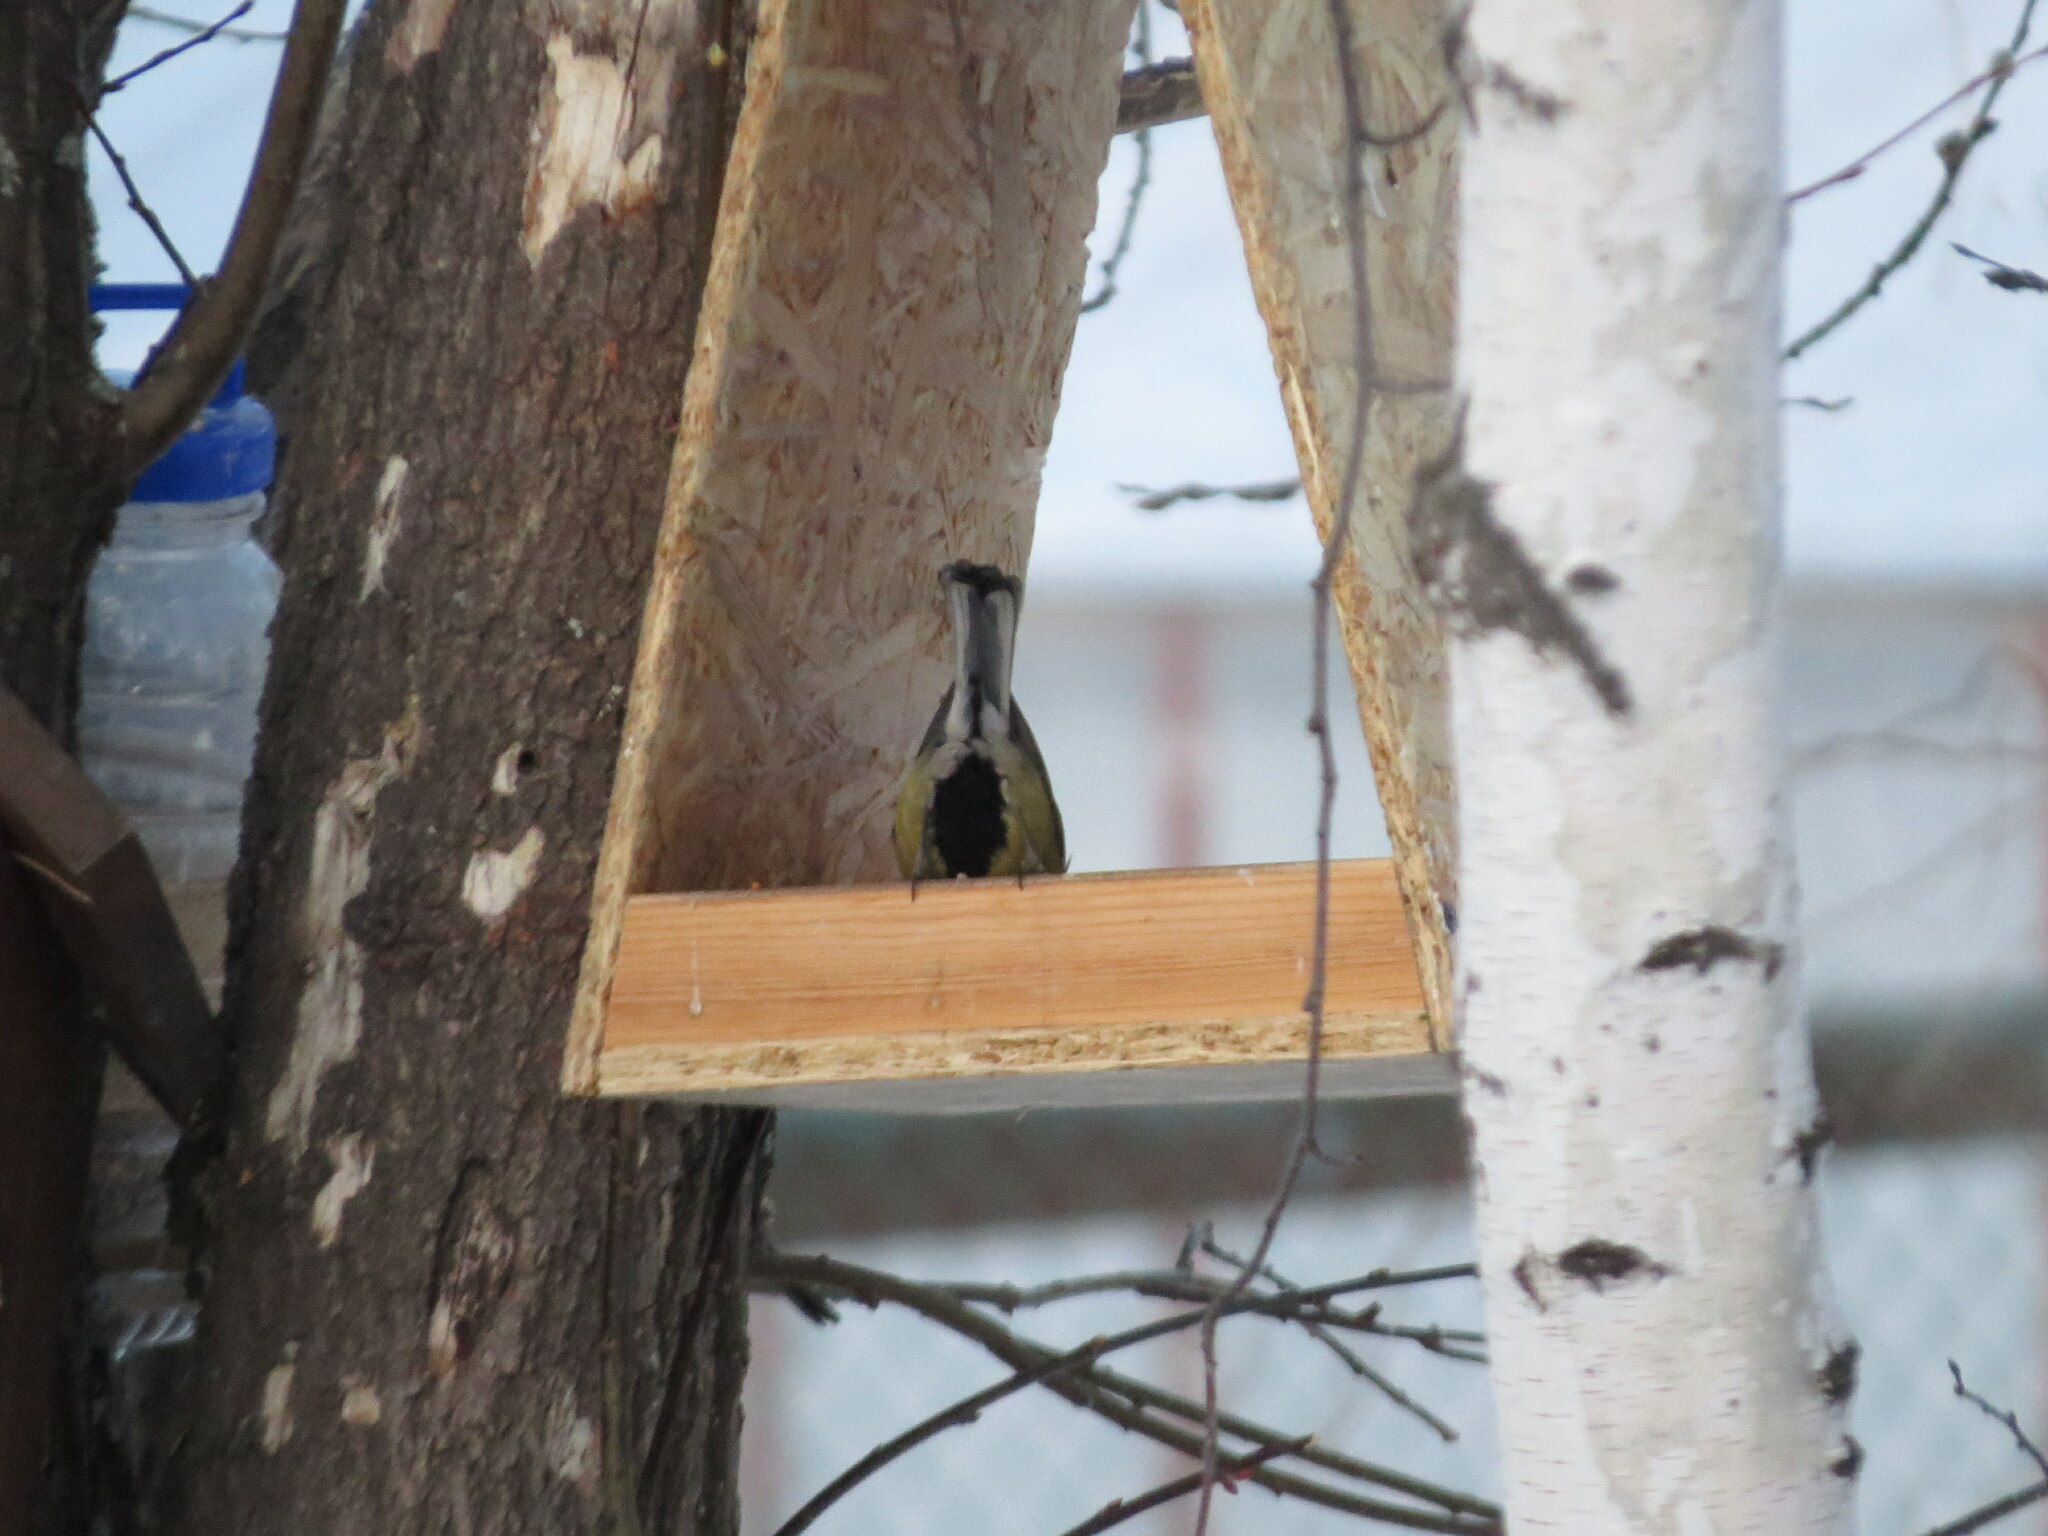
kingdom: Animalia
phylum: Chordata
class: Aves
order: Passeriformes
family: Paridae
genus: Parus
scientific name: Parus major
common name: Great tit
